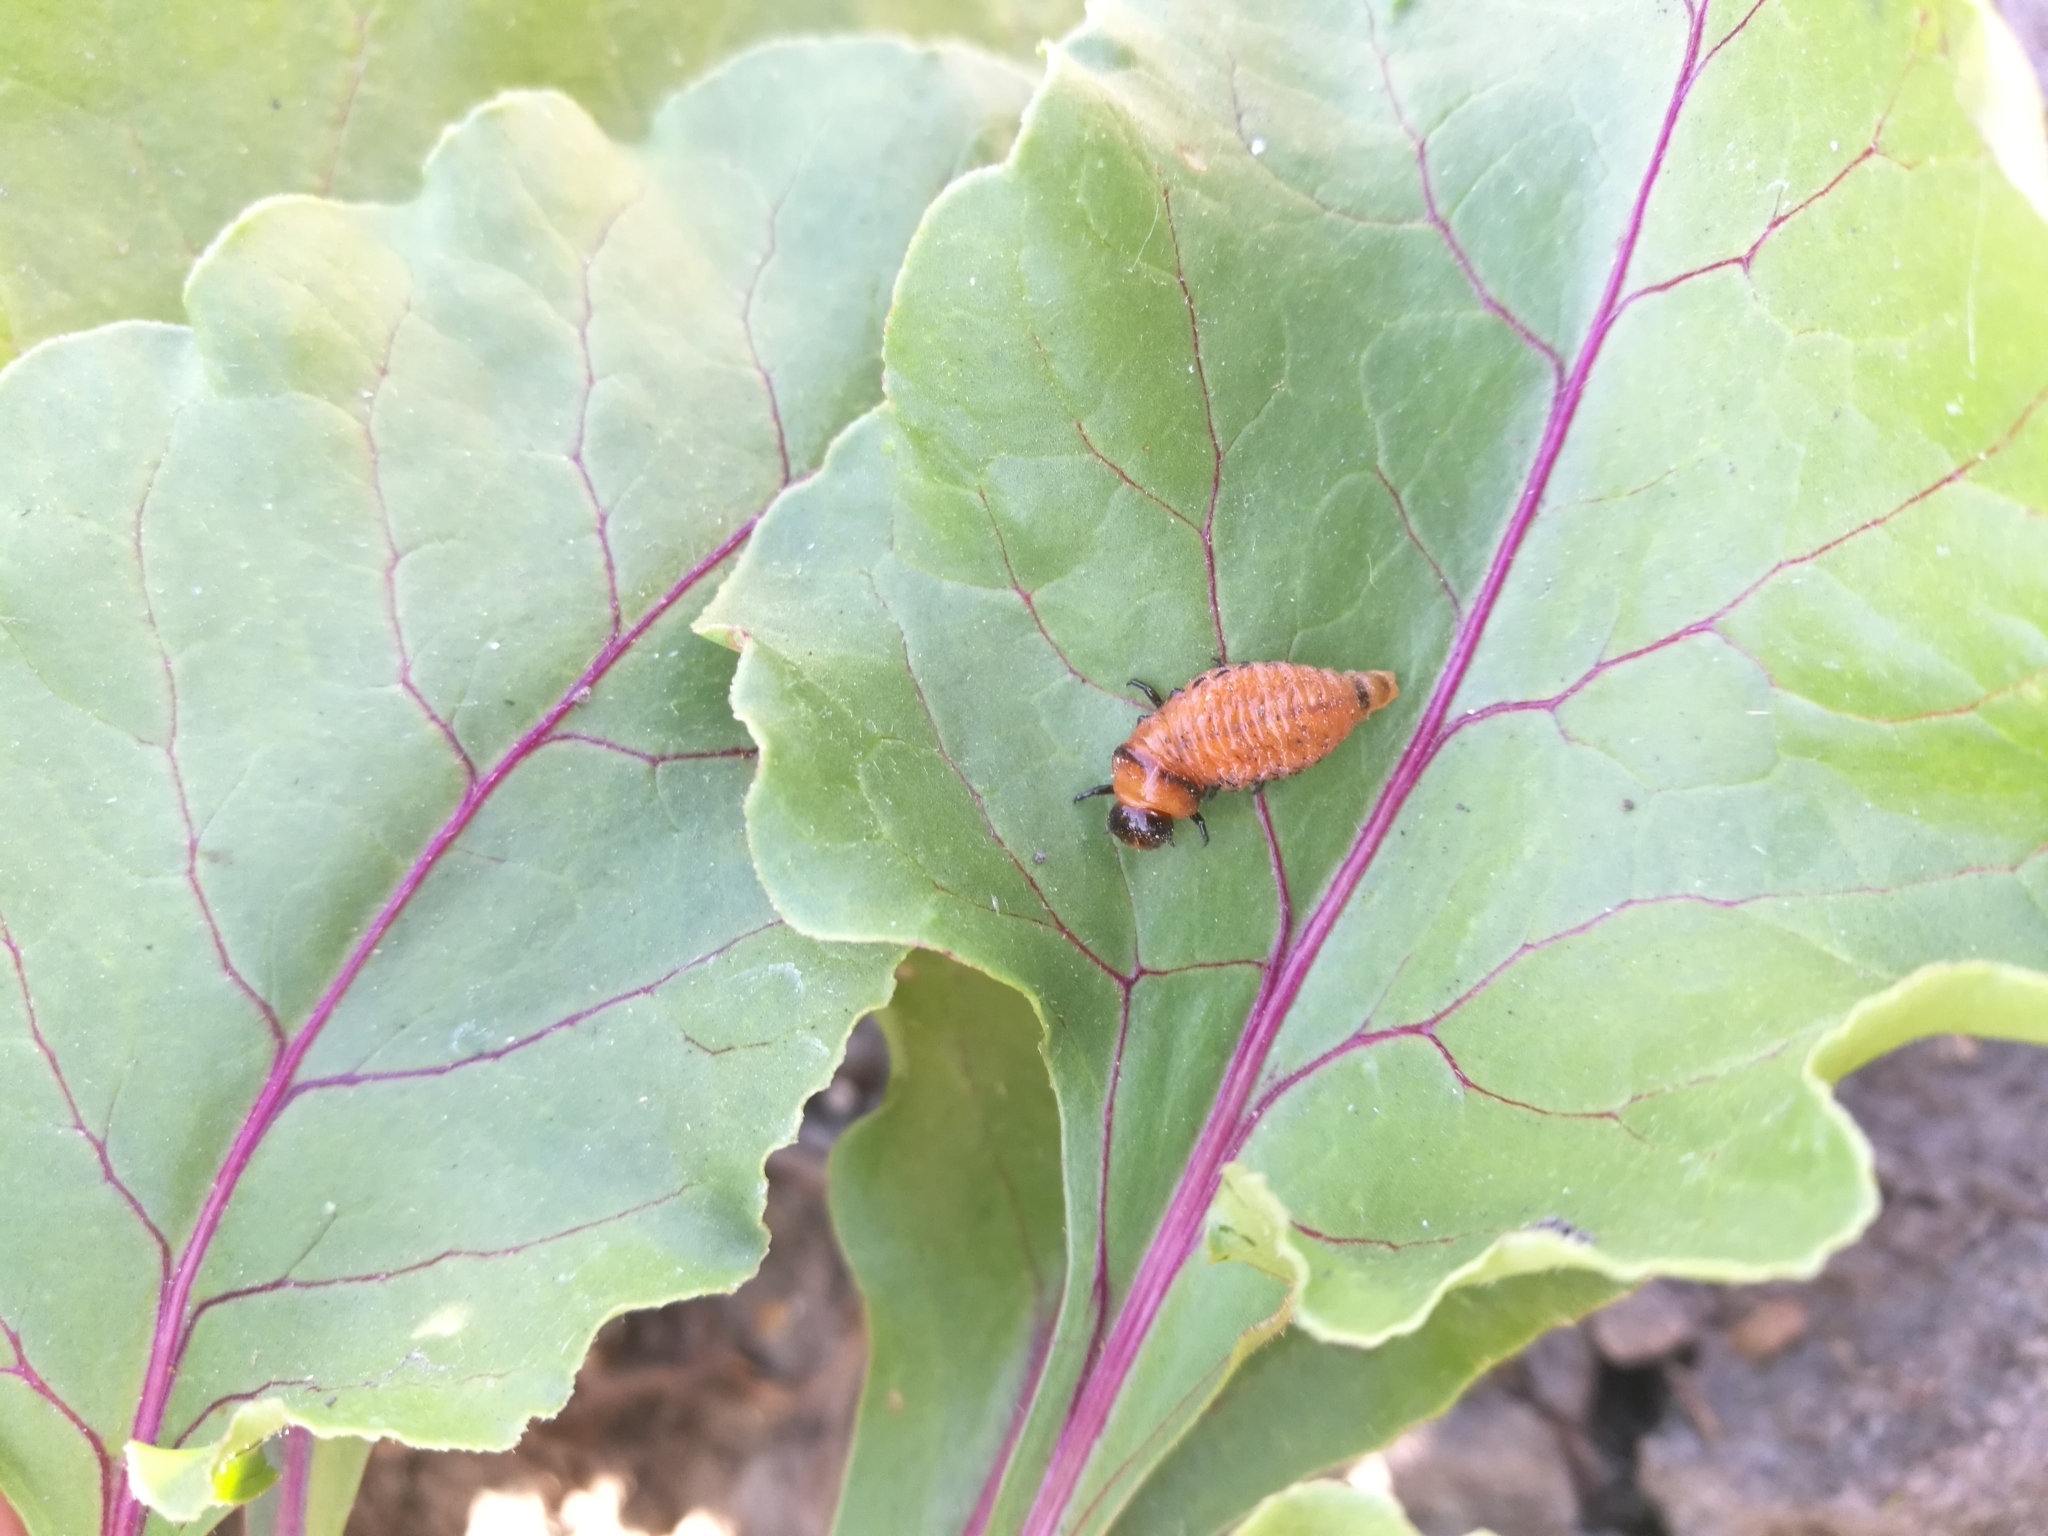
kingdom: Animalia
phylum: Arthropoda
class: Insecta
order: Coleoptera
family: Chrysomelidae
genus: Leptinotarsa
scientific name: Leptinotarsa decemlineata
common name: Colorado potato beetle
